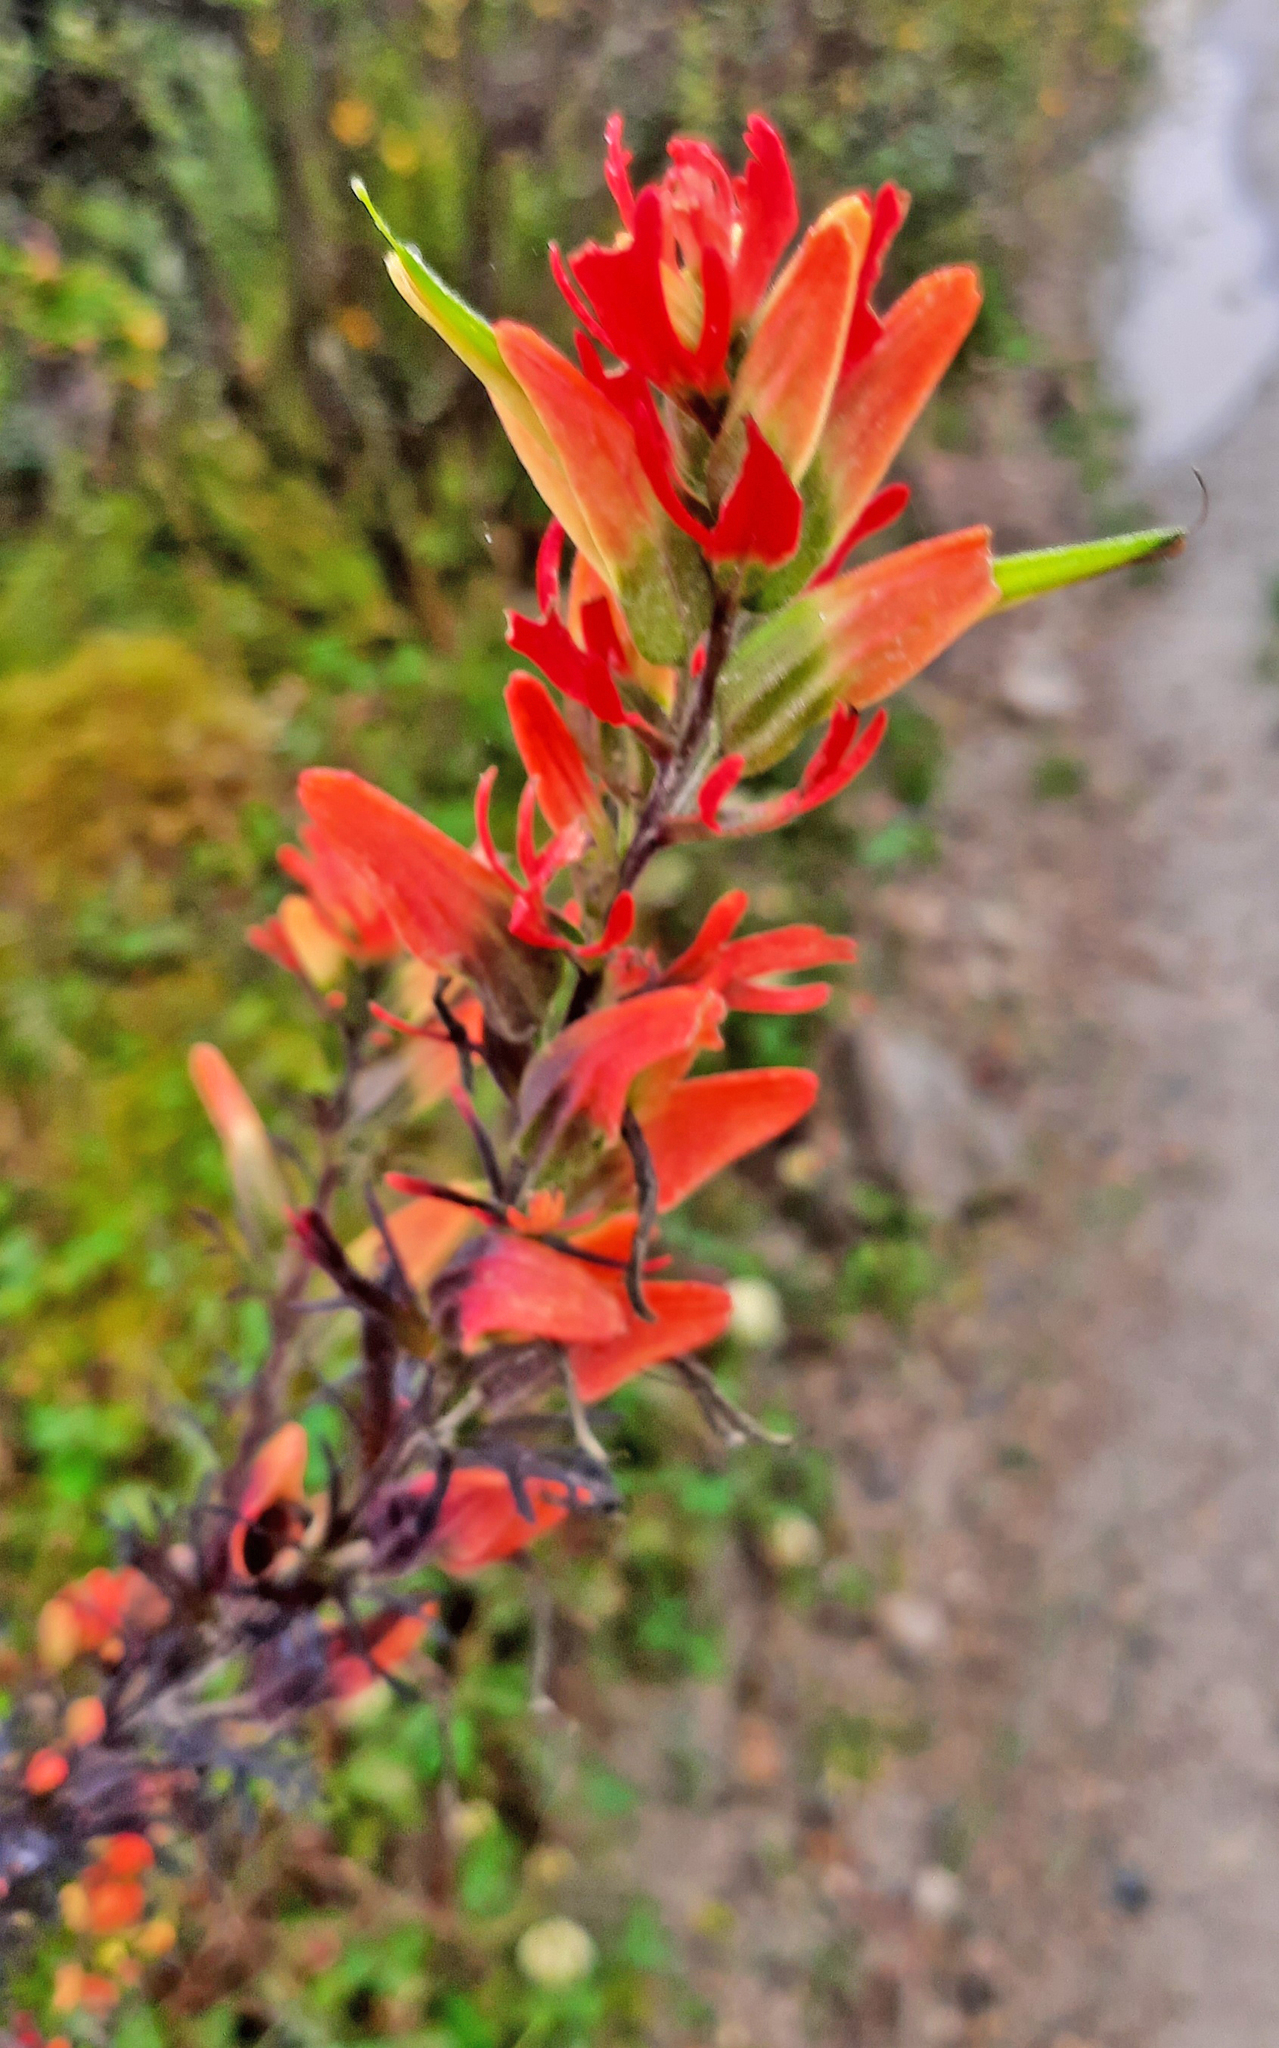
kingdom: Plantae
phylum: Tracheophyta
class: Magnoliopsida
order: Lamiales
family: Orobanchaceae
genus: Castilleja
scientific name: Castilleja fissifolia
